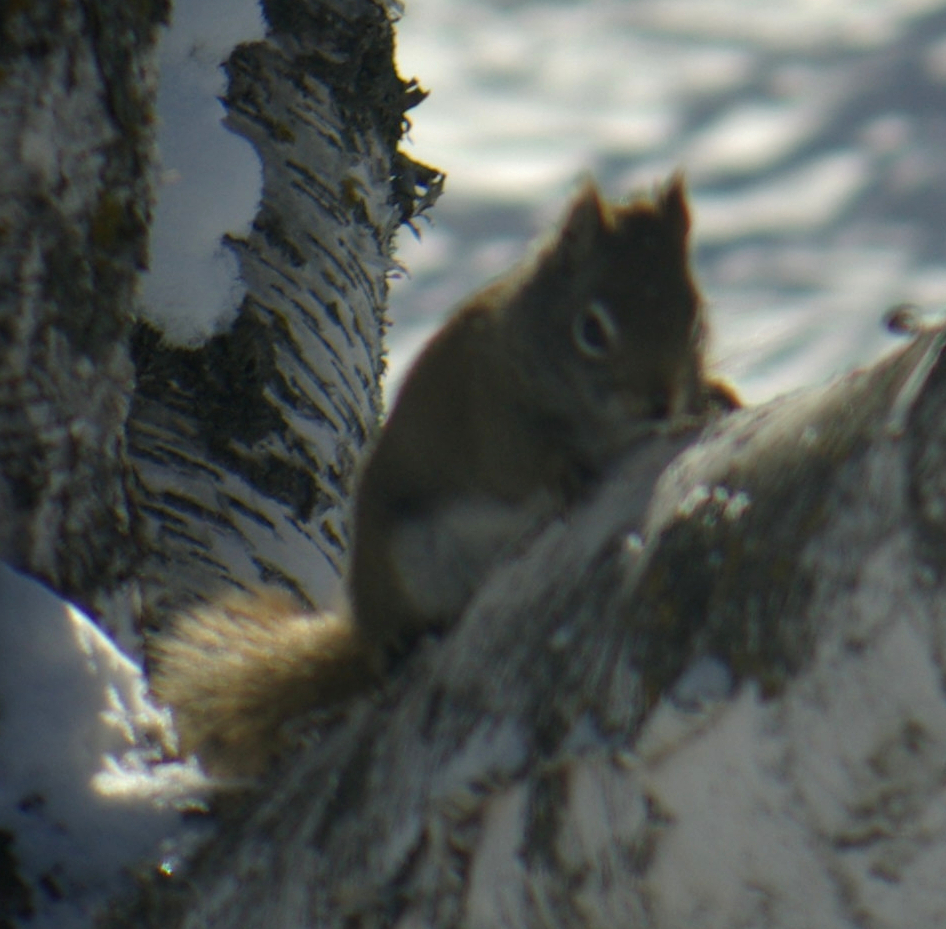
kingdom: Animalia
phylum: Chordata
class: Mammalia
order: Rodentia
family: Sciuridae
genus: Tamiasciurus
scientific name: Tamiasciurus hudsonicus
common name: Red squirrel
